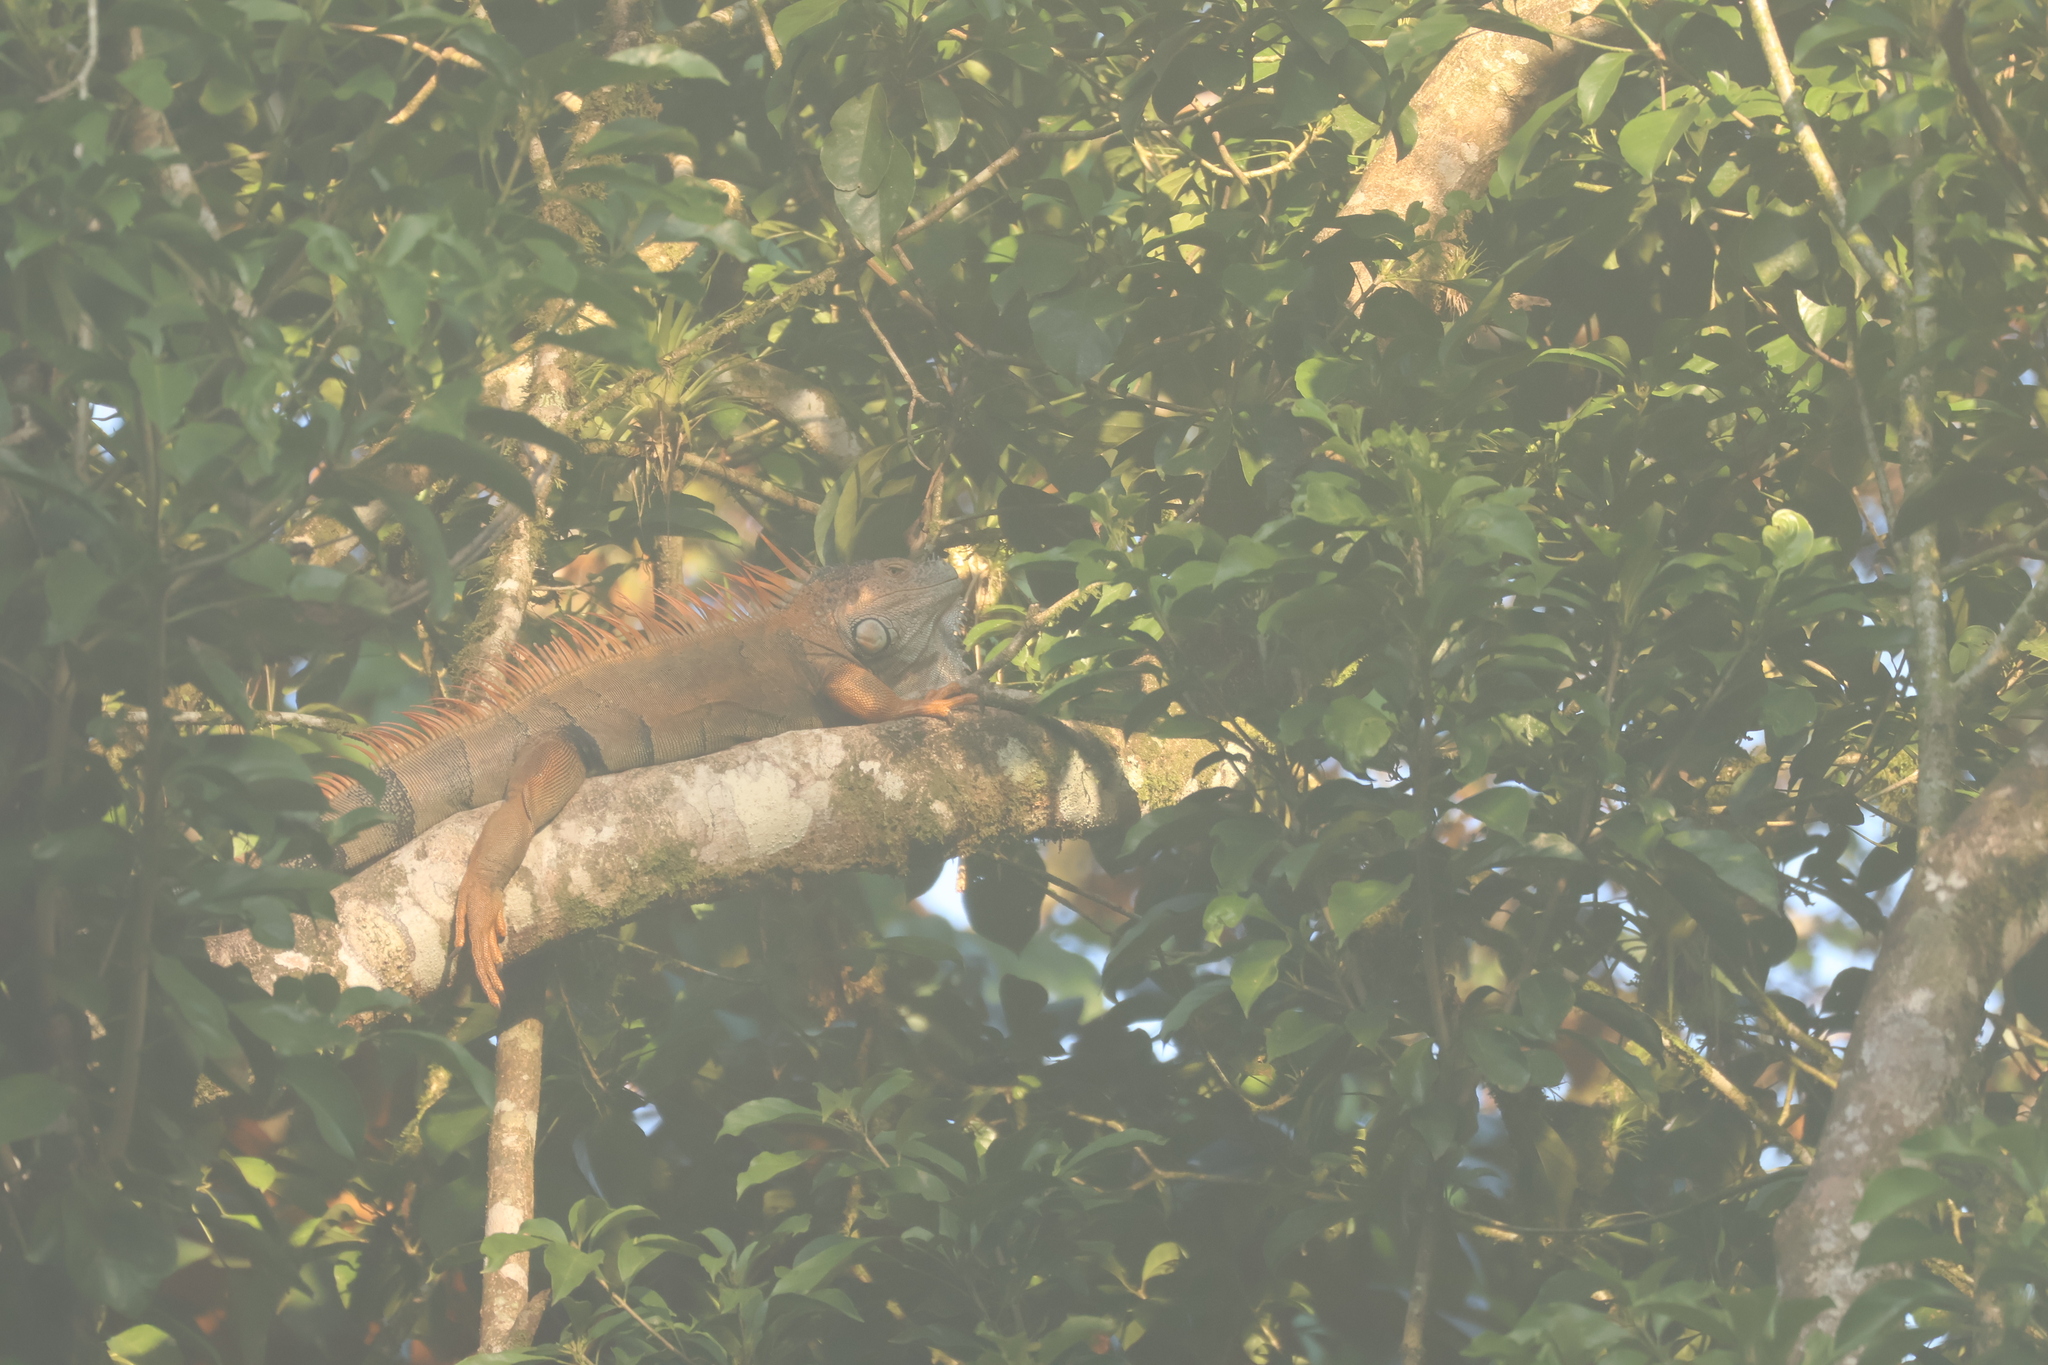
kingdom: Animalia
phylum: Chordata
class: Squamata
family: Iguanidae
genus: Iguana
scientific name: Iguana iguana
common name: Green iguana
